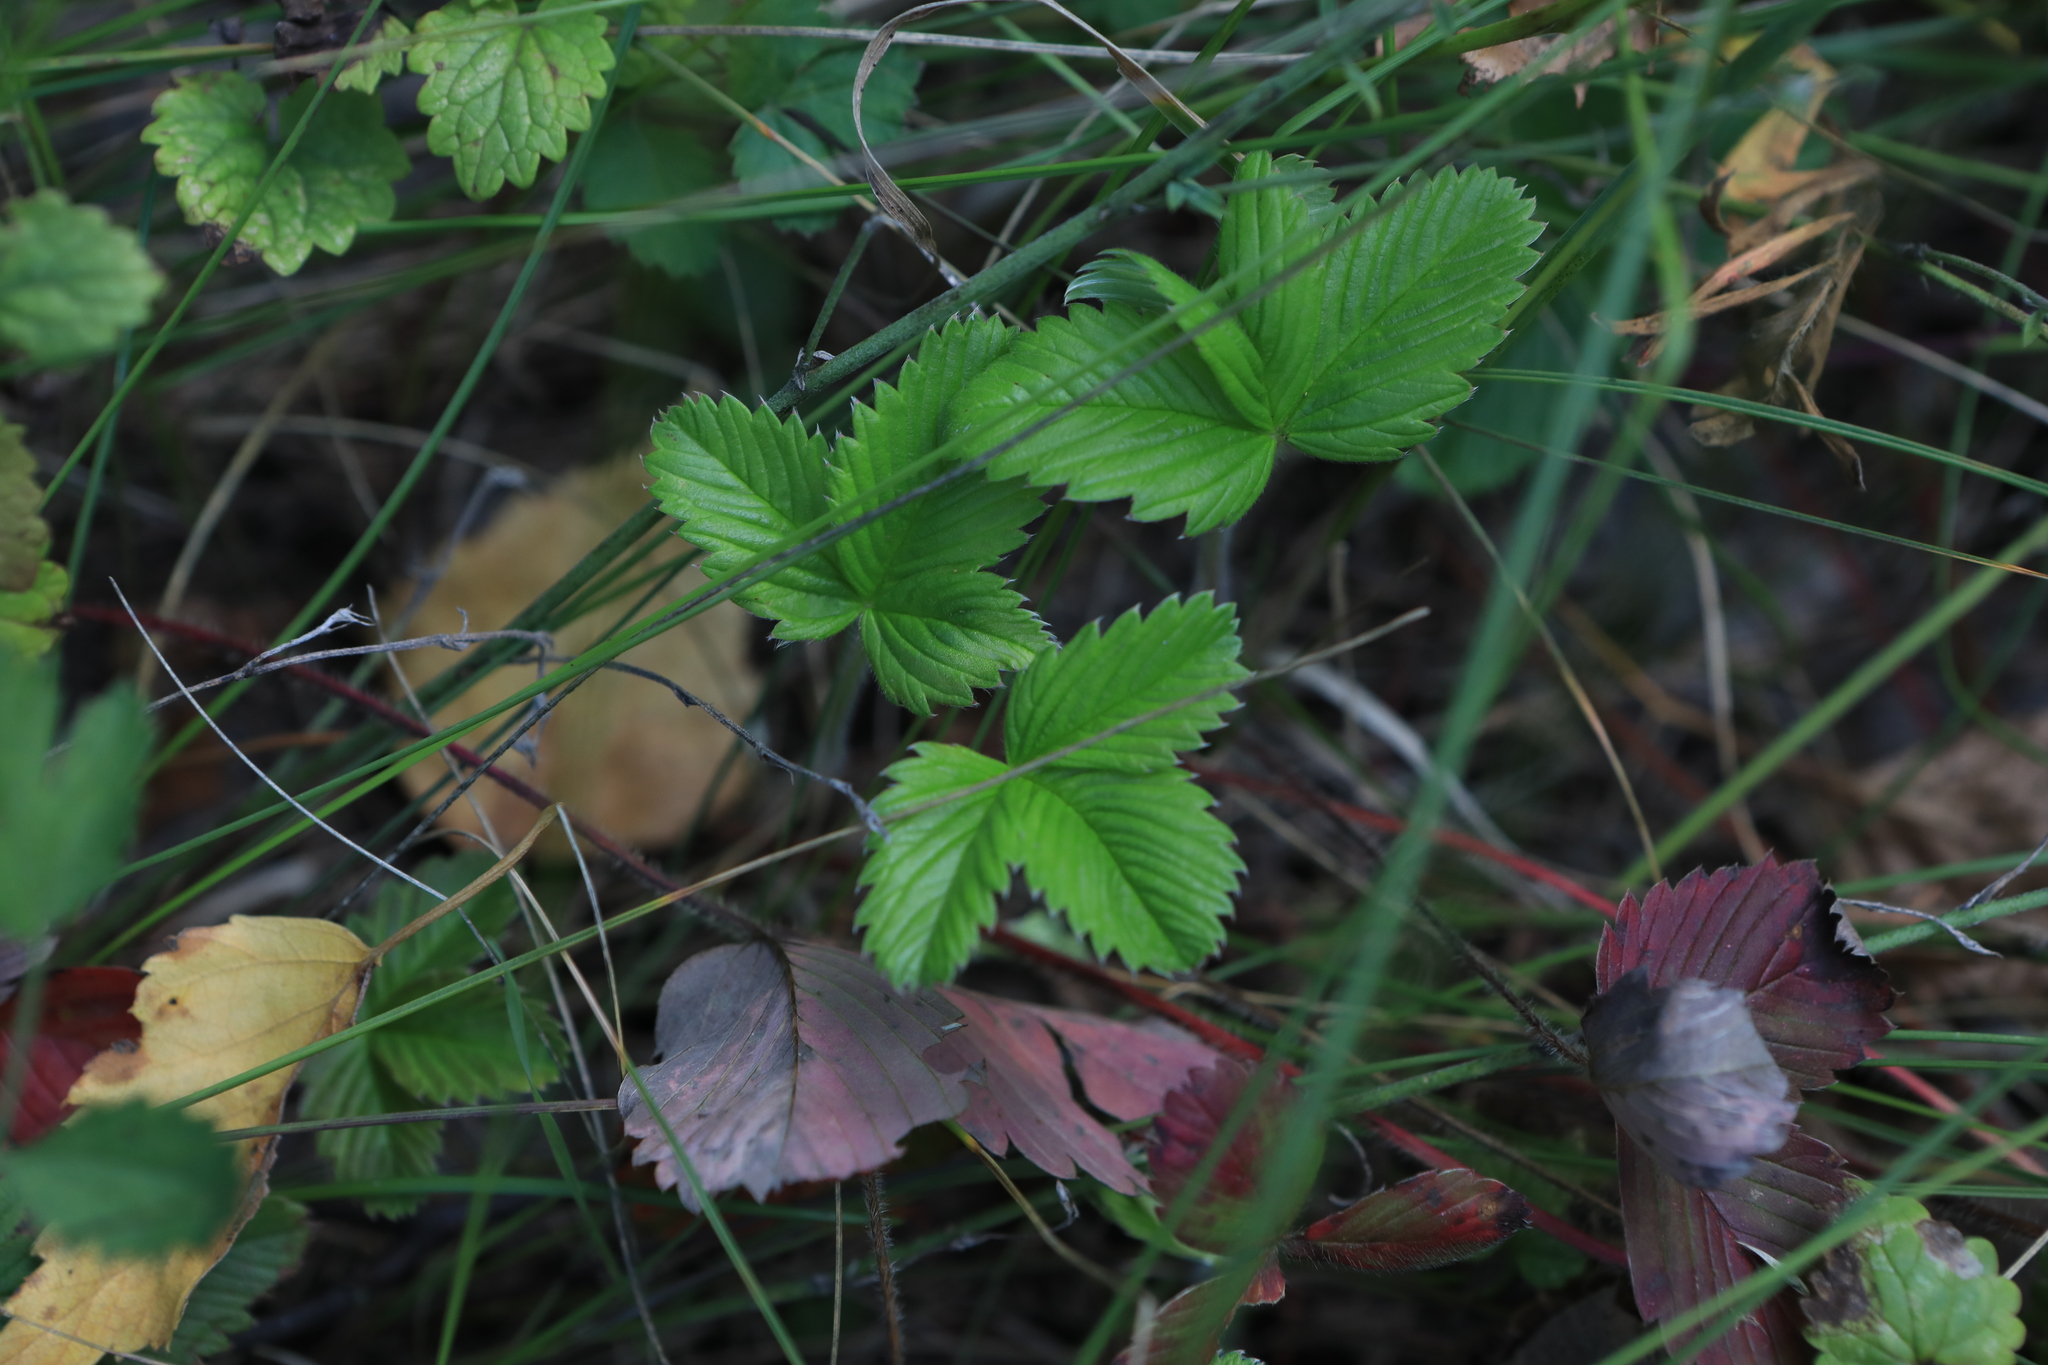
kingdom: Plantae
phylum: Tracheophyta
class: Magnoliopsida
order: Rosales
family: Rosaceae
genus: Fragaria
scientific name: Fragaria viridis
